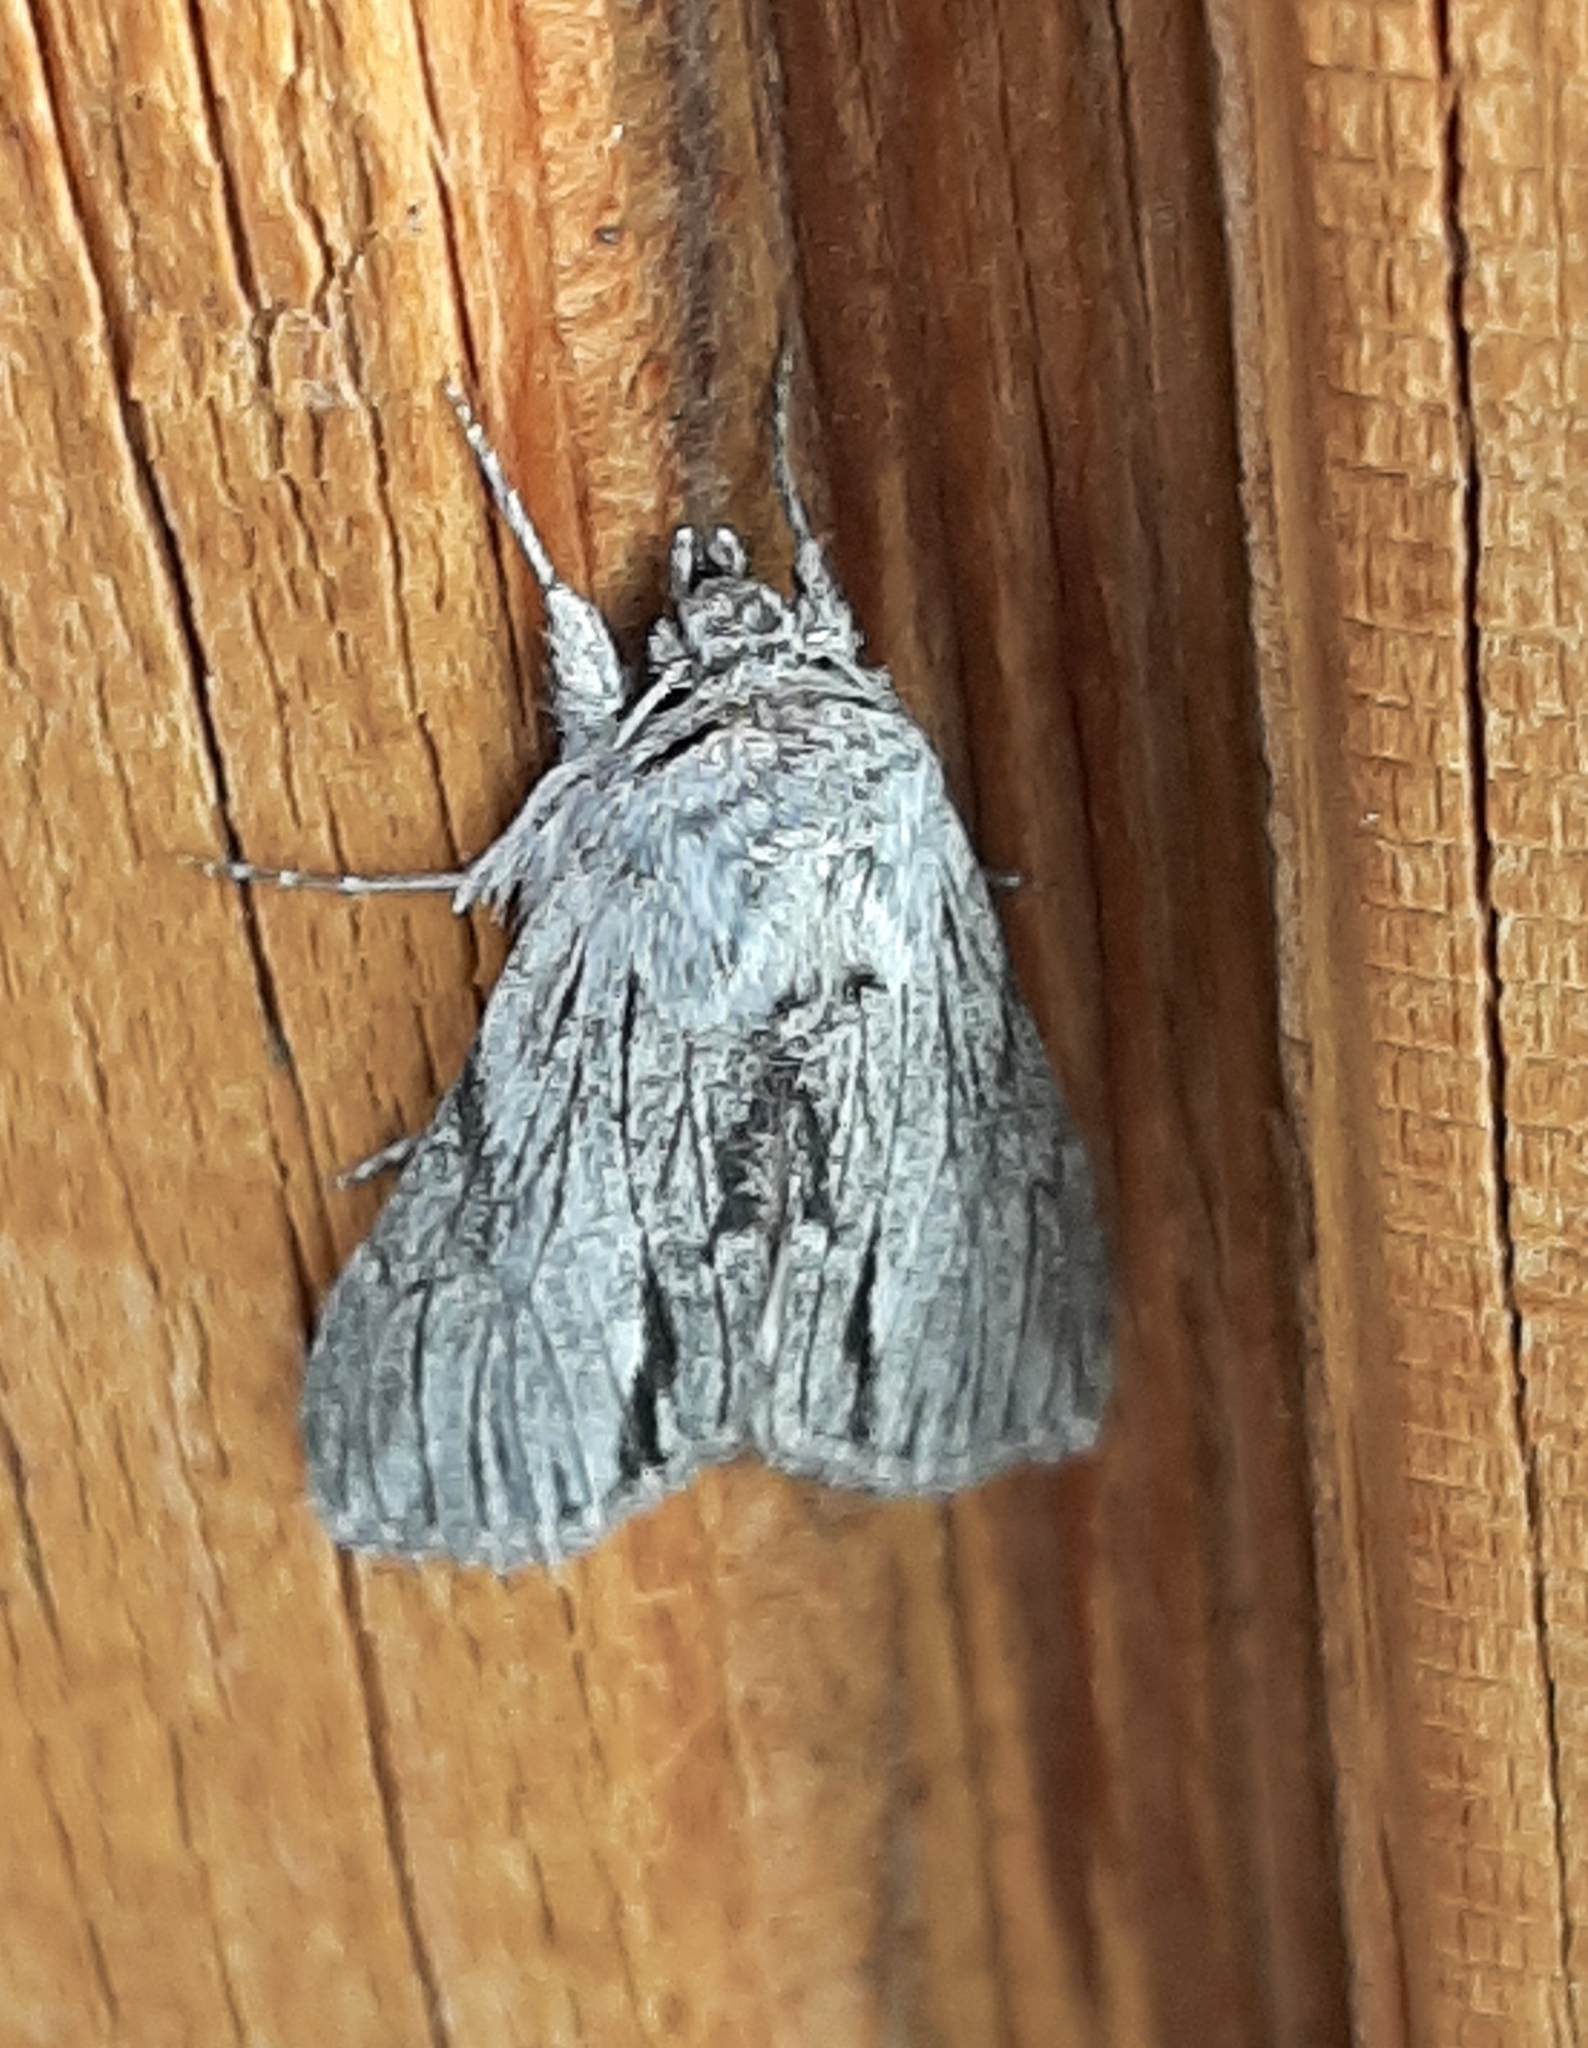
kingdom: Animalia
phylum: Arthropoda
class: Insecta
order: Lepidoptera
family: Noctuidae
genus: Cucullia
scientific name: Cucullia eulepis
